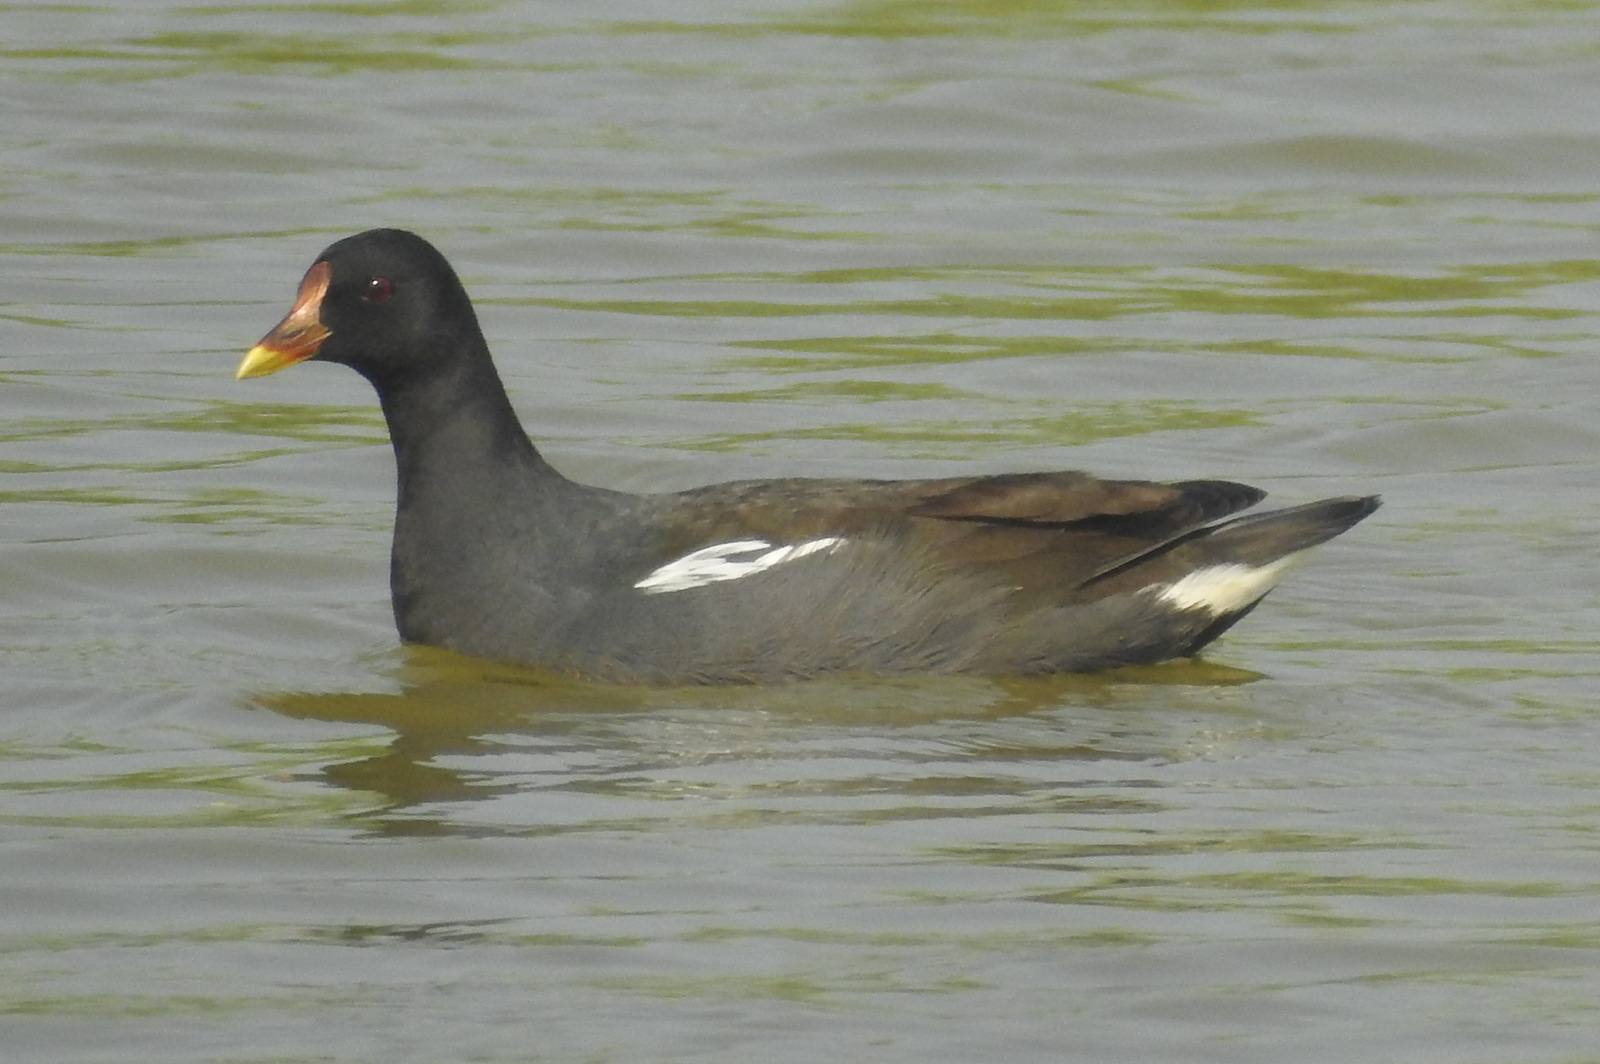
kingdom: Animalia
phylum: Chordata
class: Aves
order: Gruiformes
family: Rallidae
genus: Gallinula
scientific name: Gallinula chloropus
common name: Common moorhen
